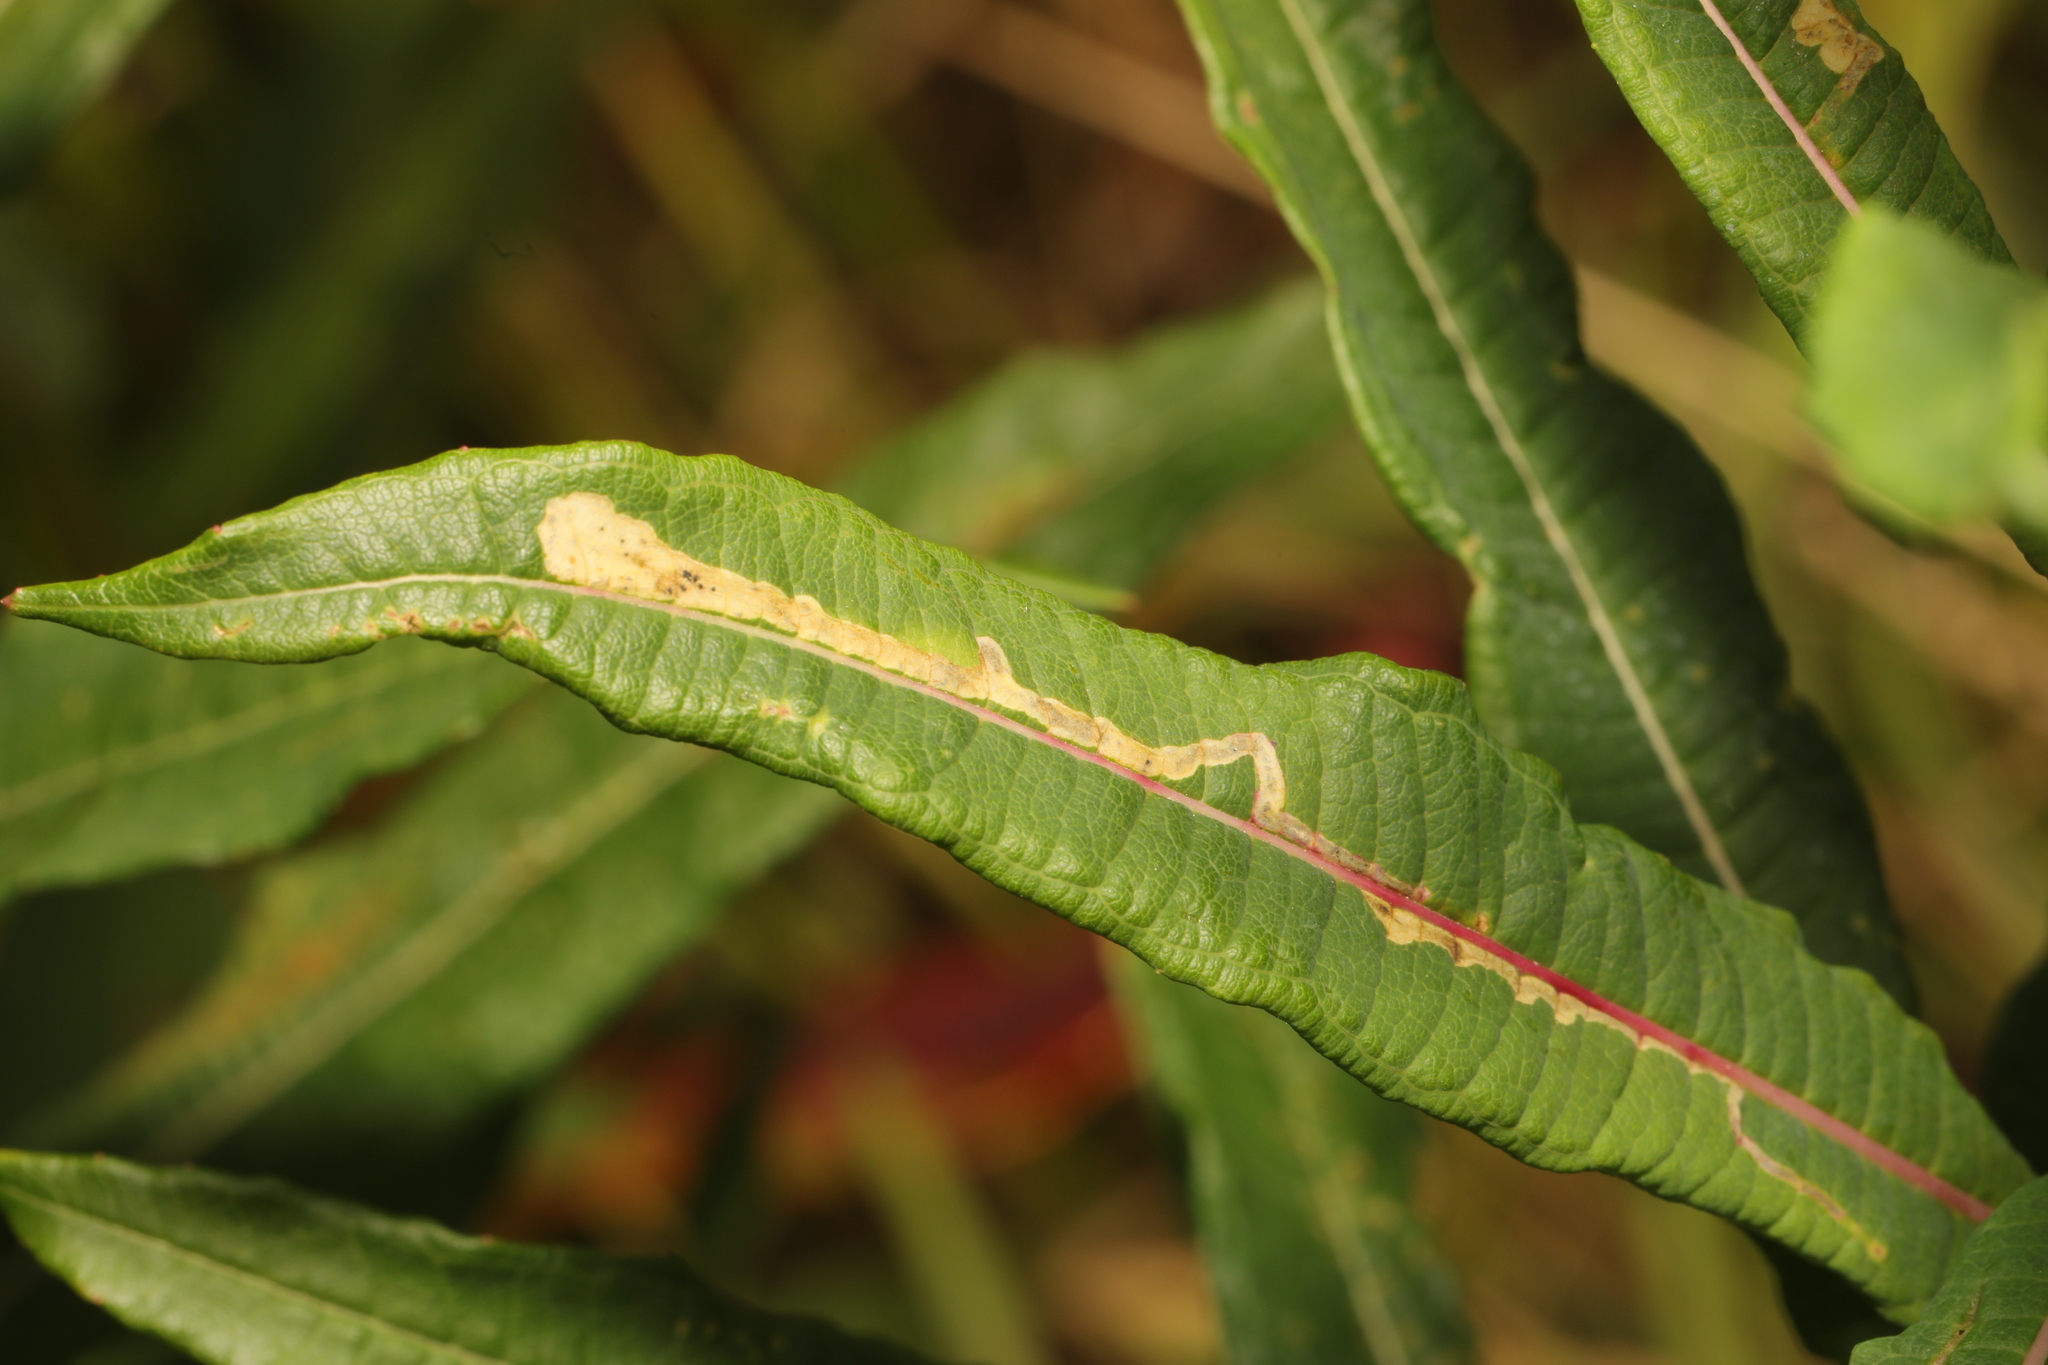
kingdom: Animalia
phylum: Arthropoda
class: Insecta
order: Lepidoptera
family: Momphidae
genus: Mompha
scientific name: Mompha raschkiella
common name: Little cosmet
